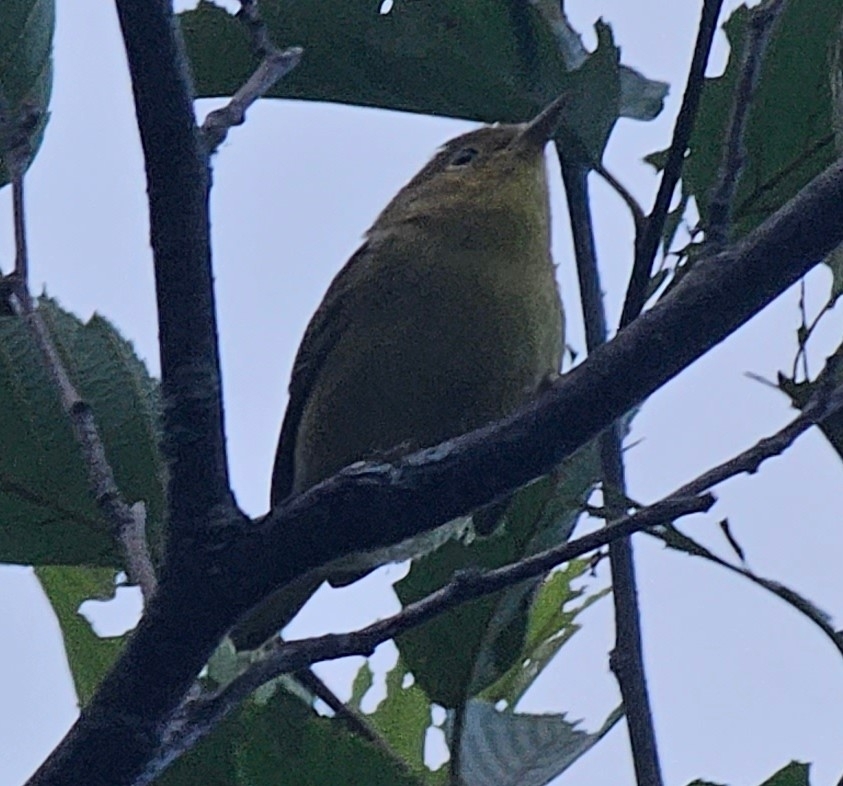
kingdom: Animalia
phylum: Chordata
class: Aves
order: Passeriformes
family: Parulidae
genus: Setophaga
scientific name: Setophaga petechia
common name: Yellow warbler
